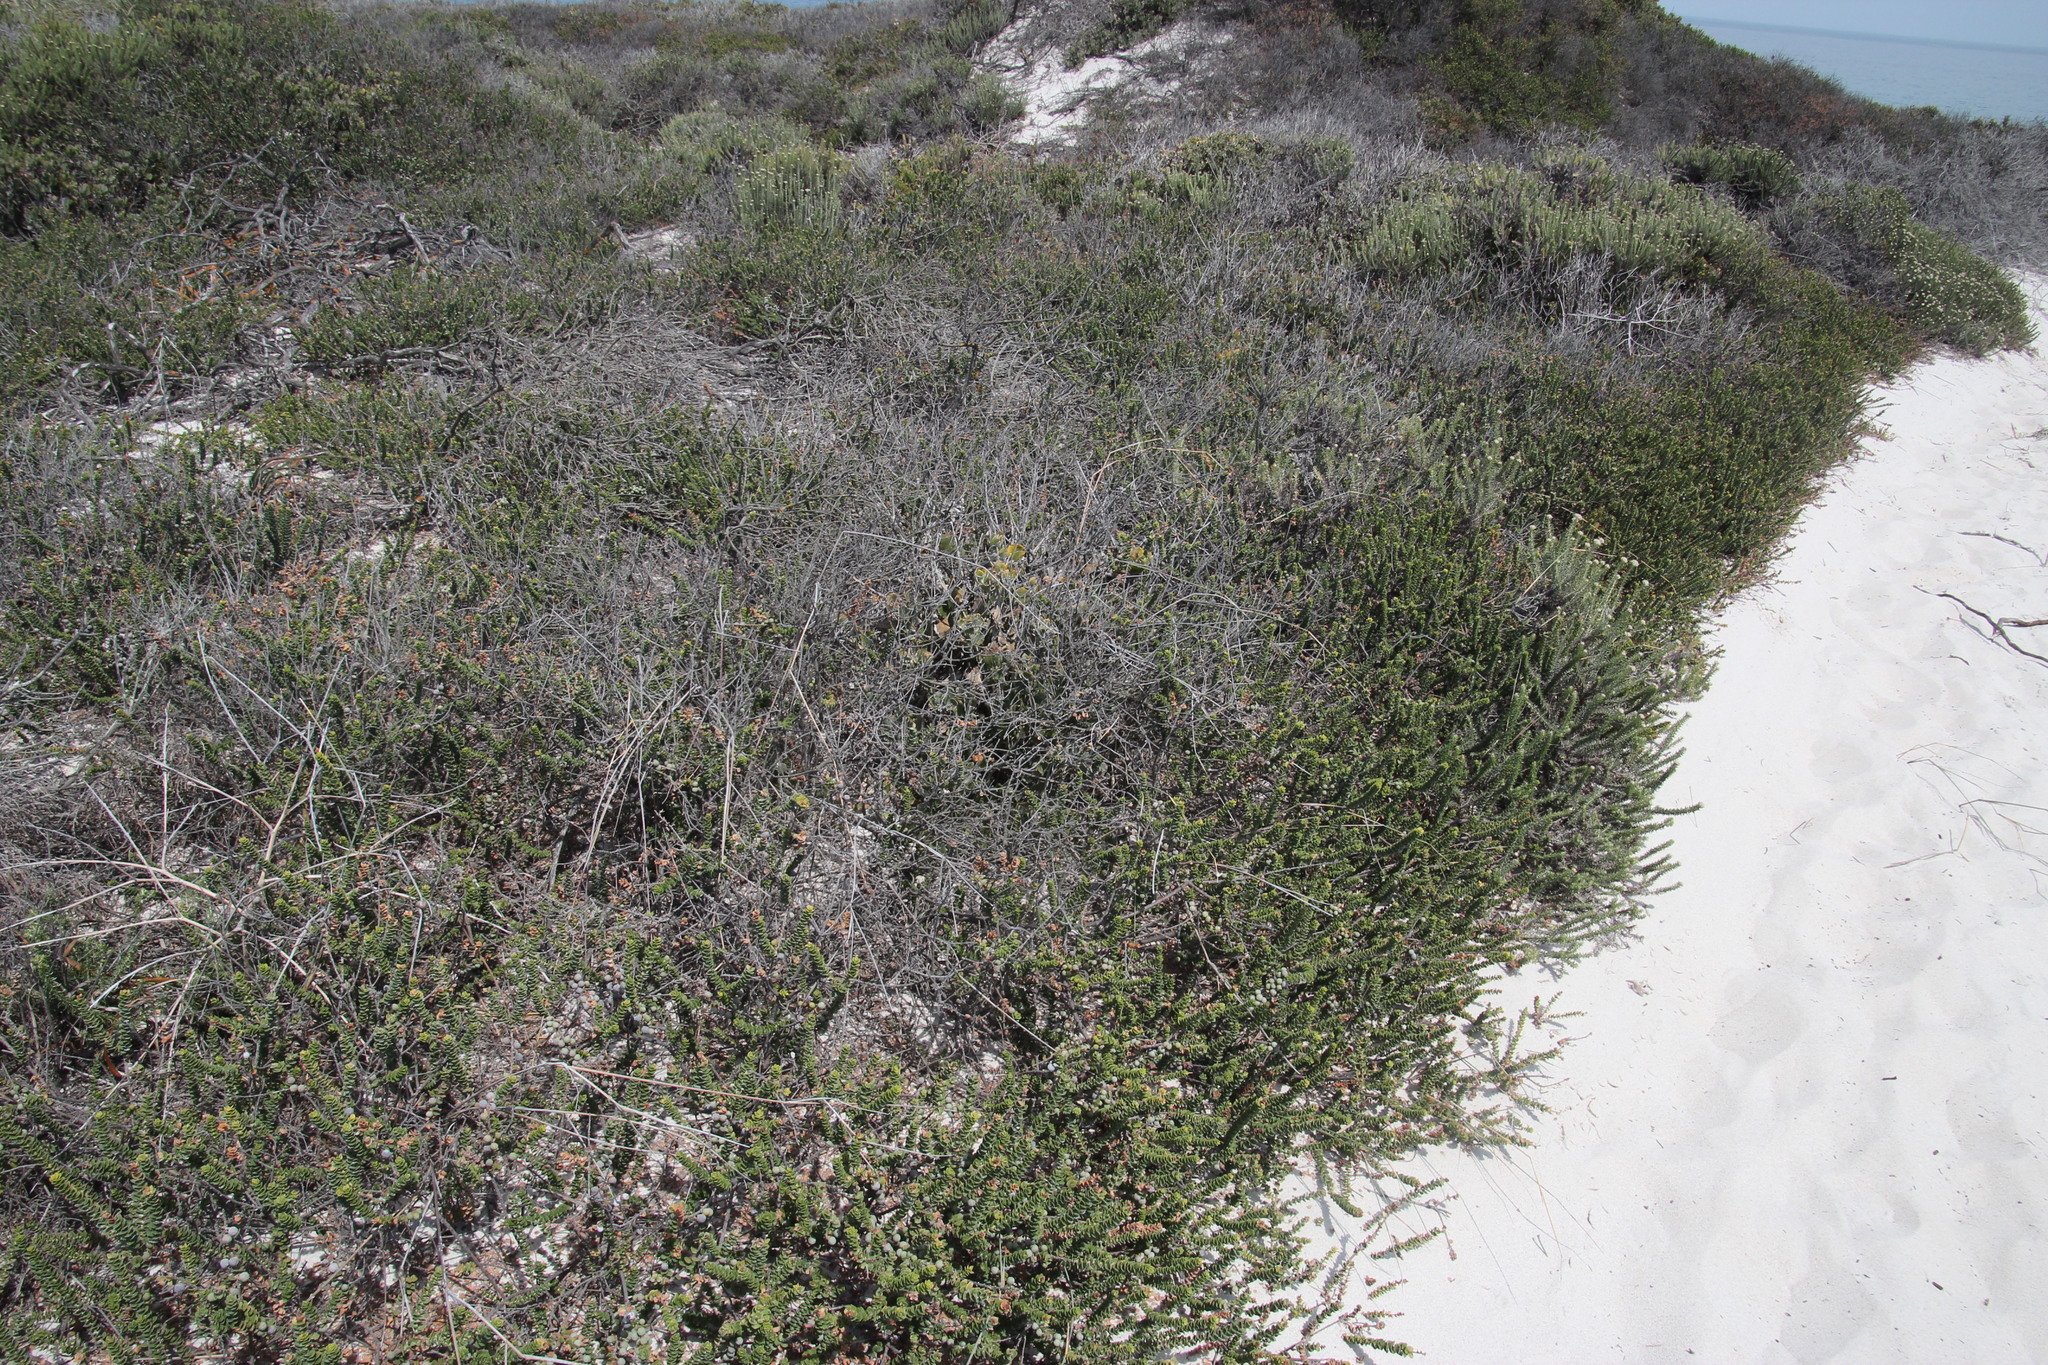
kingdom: Plantae
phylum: Tracheophyta
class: Magnoliopsida
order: Fagales
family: Myricaceae
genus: Morella
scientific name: Morella cordifolia
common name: Waxberry
